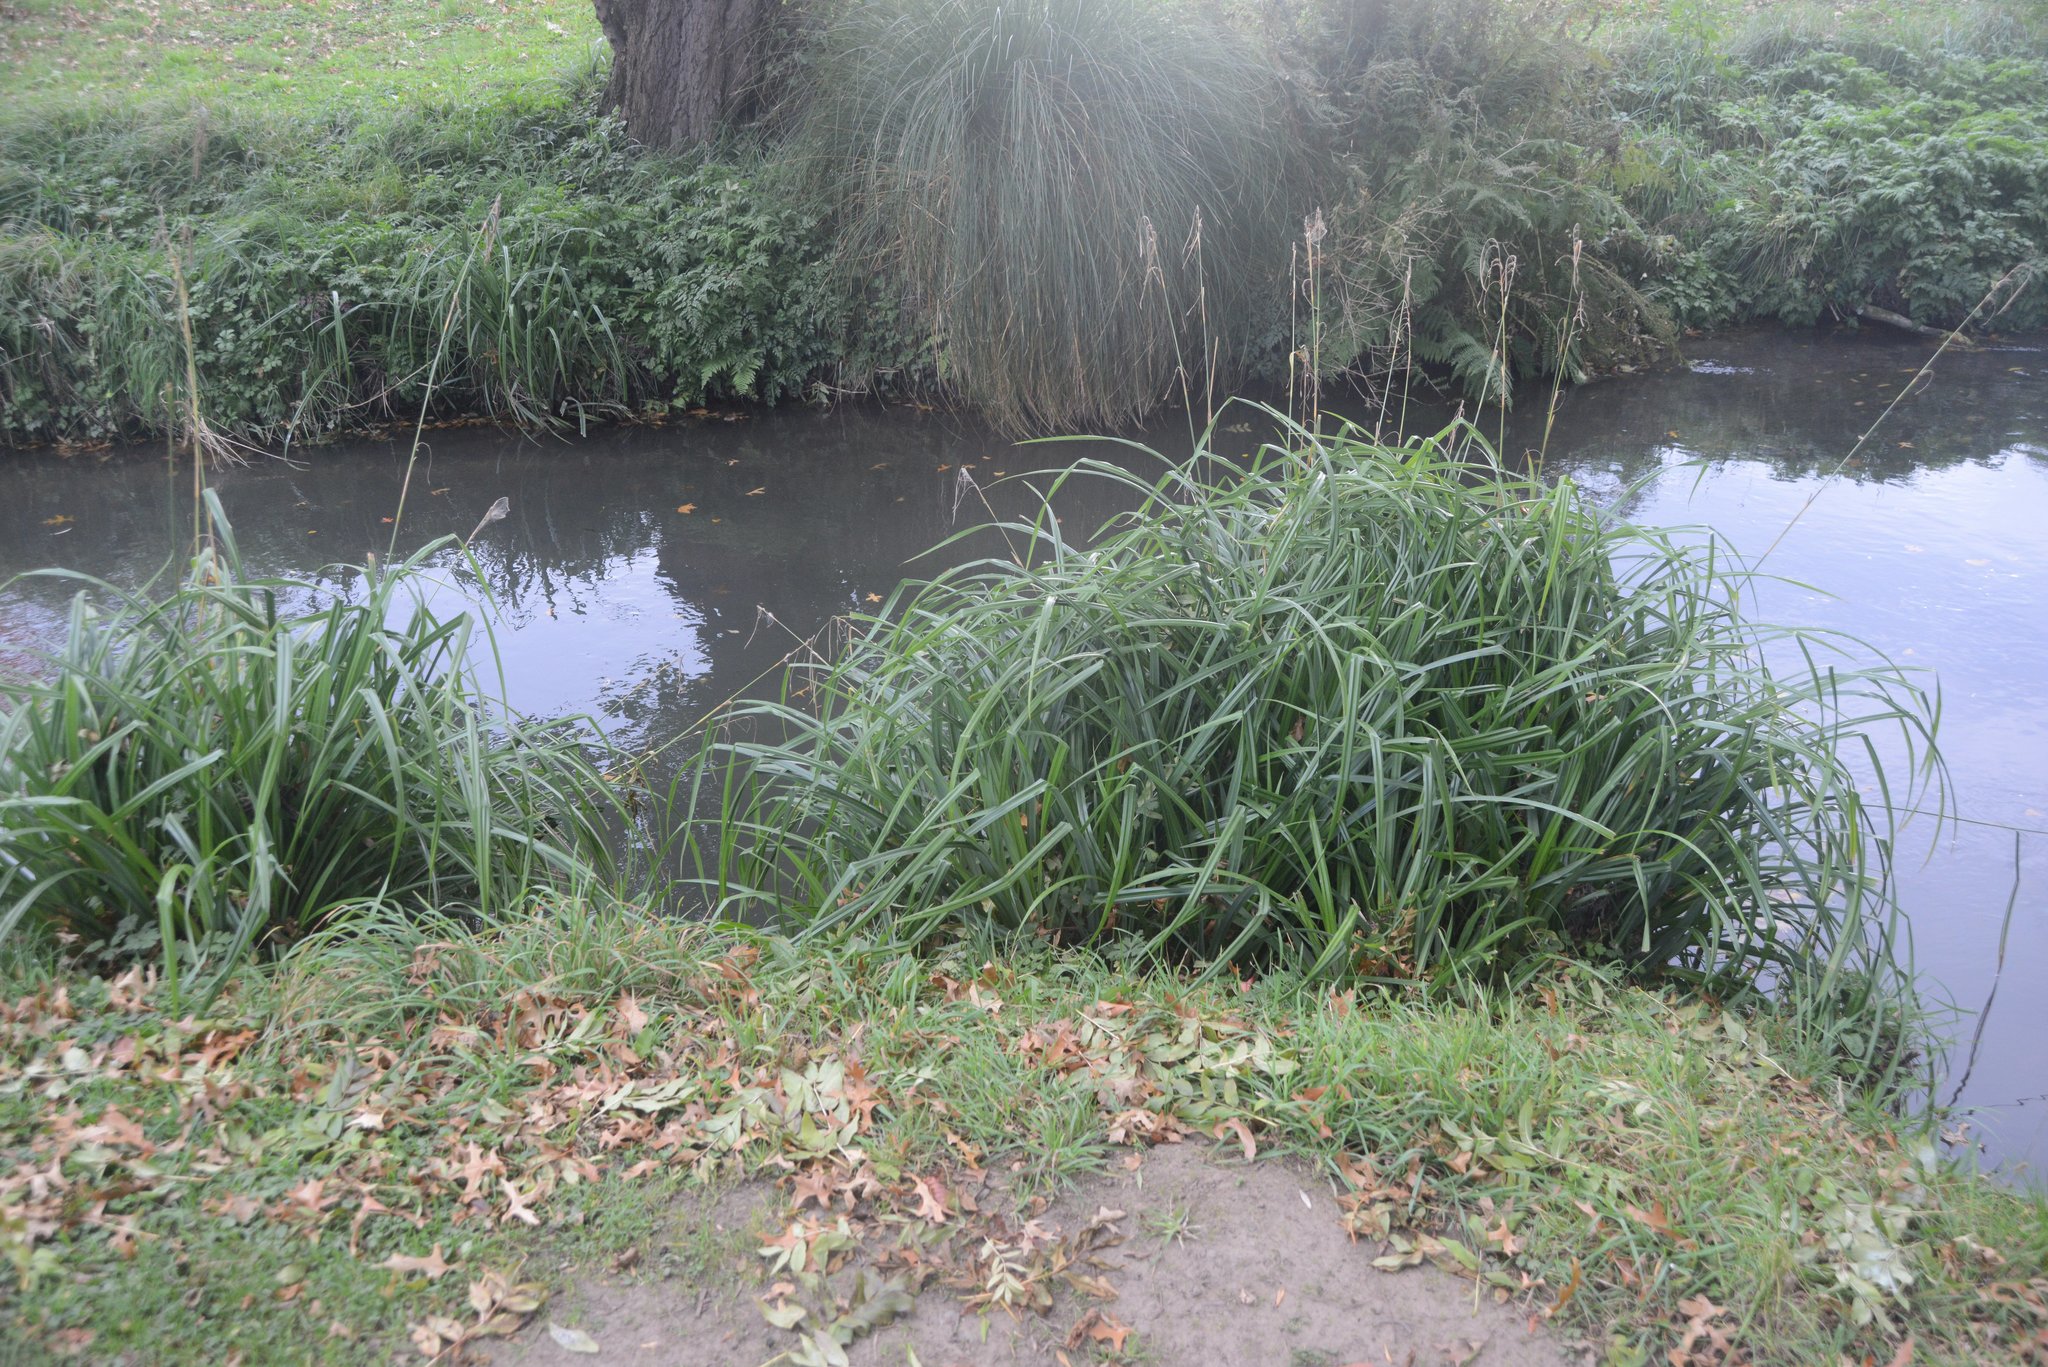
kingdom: Plantae
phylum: Tracheophyta
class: Liliopsida
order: Poales
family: Cyperaceae
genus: Carex
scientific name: Carex pendula
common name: Pendulous sedge
